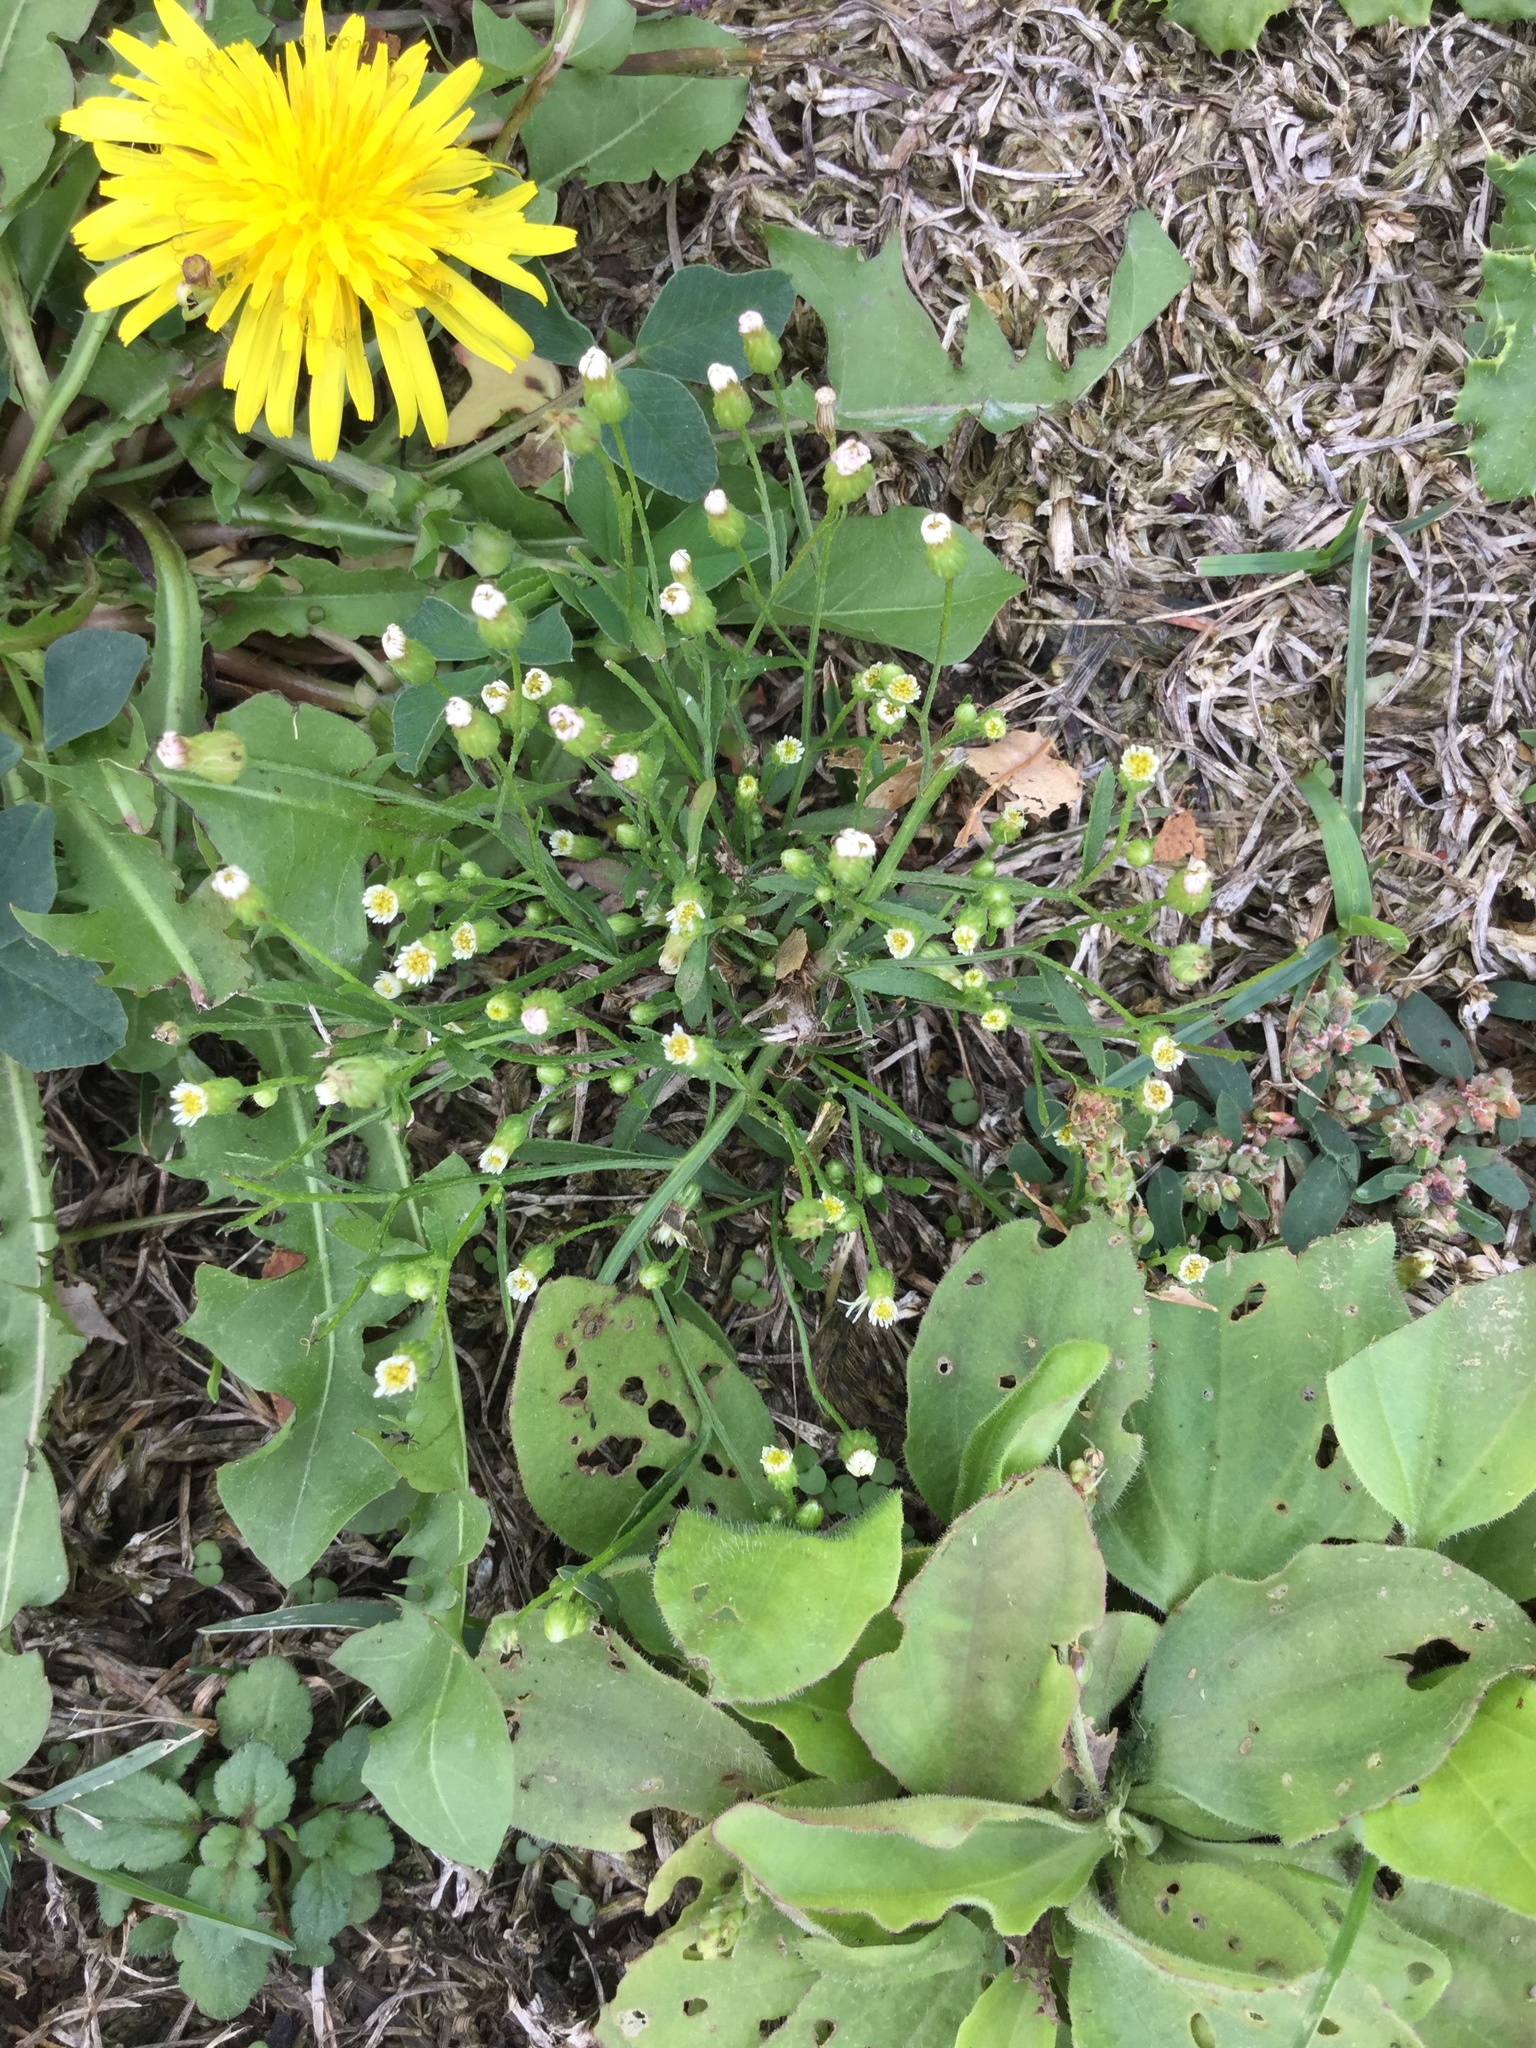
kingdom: Plantae
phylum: Tracheophyta
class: Magnoliopsida
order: Asterales
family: Asteraceae
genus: Erigeron
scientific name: Erigeron canadensis
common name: Canadian fleabane
